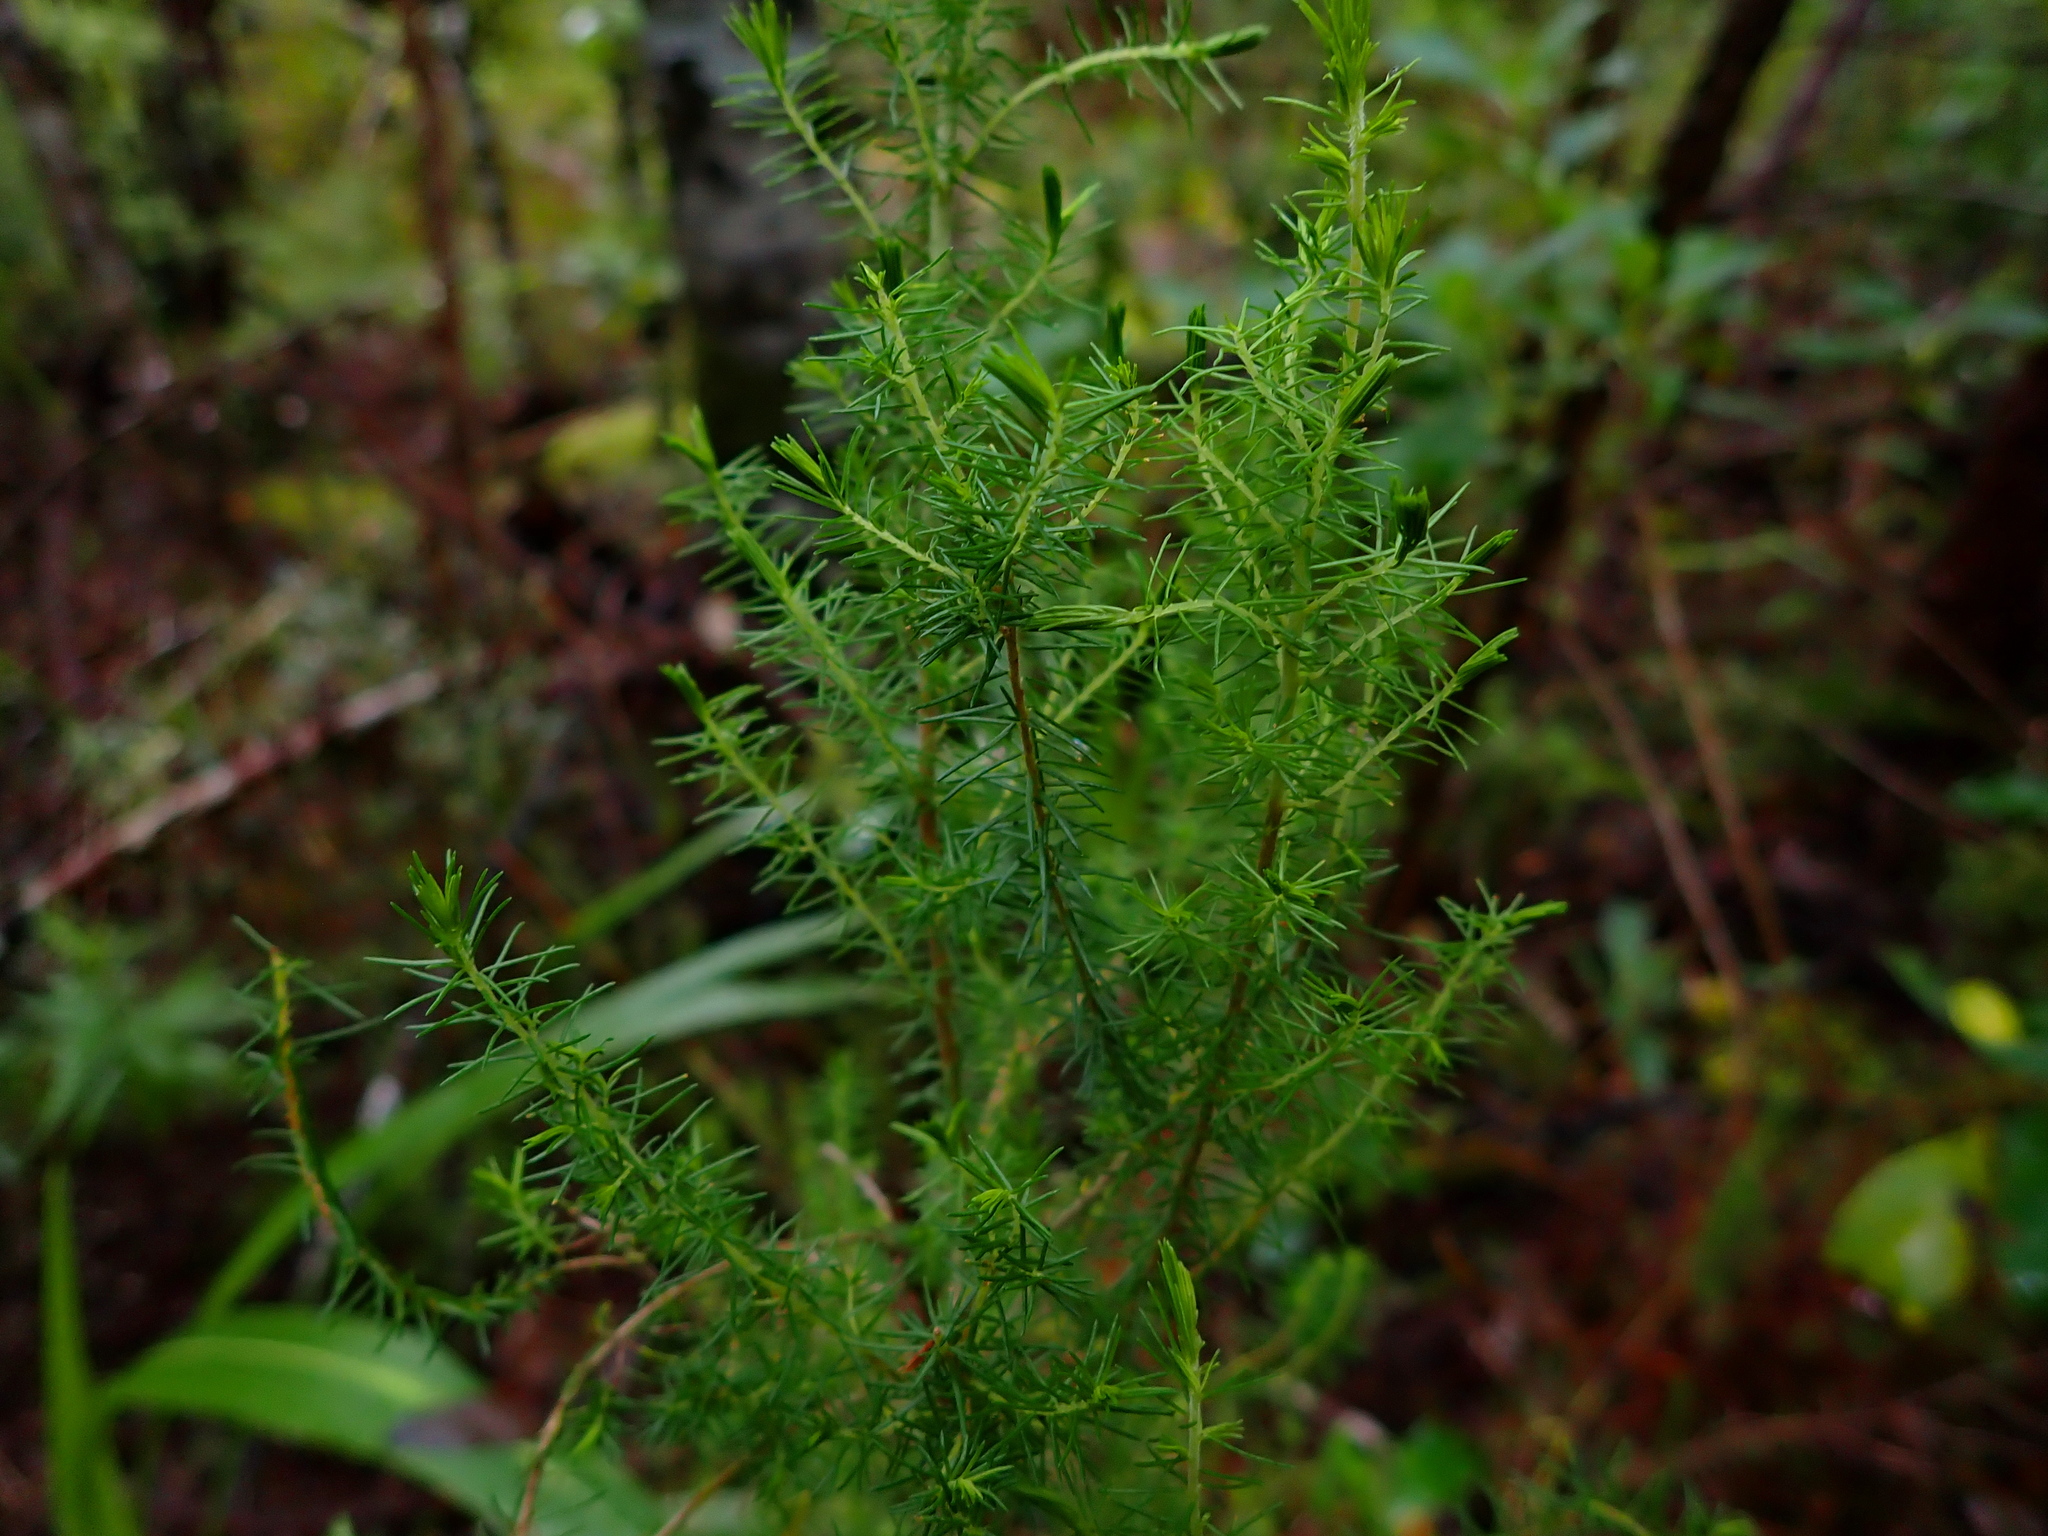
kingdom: Plantae
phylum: Tracheophyta
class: Magnoliopsida
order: Ericales
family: Ericaceae
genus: Erica
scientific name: Erica lusitanica
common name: Spanish heath
